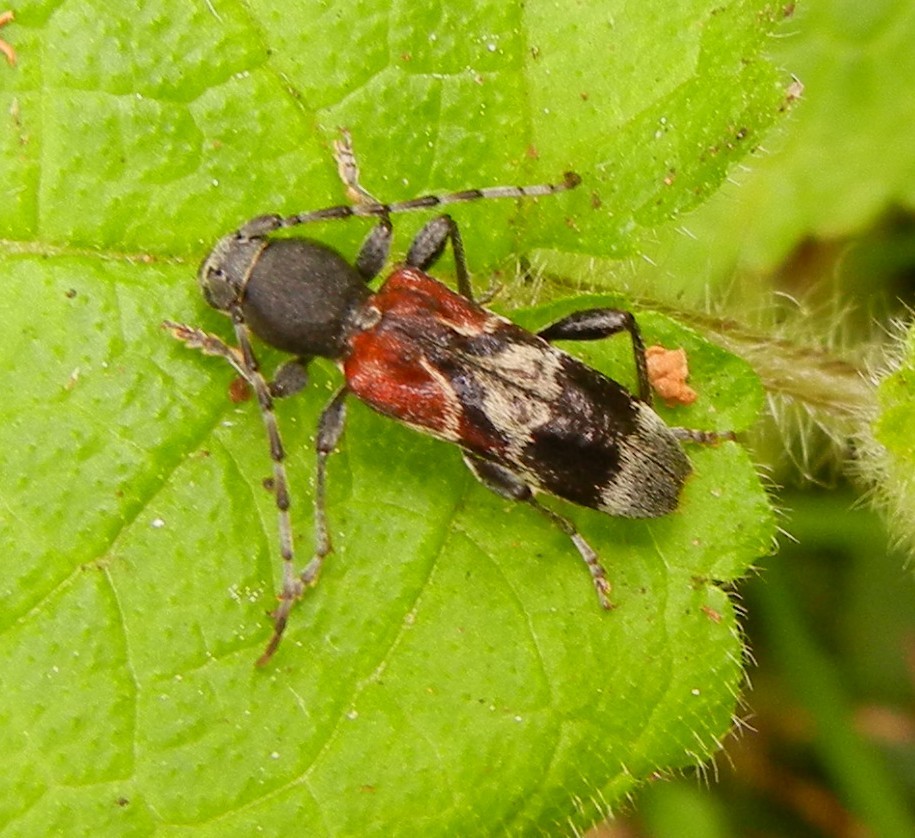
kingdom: Animalia
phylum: Arthropoda
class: Insecta
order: Coleoptera
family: Cerambycidae
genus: Anaglyptus
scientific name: Anaglyptus mysticus
